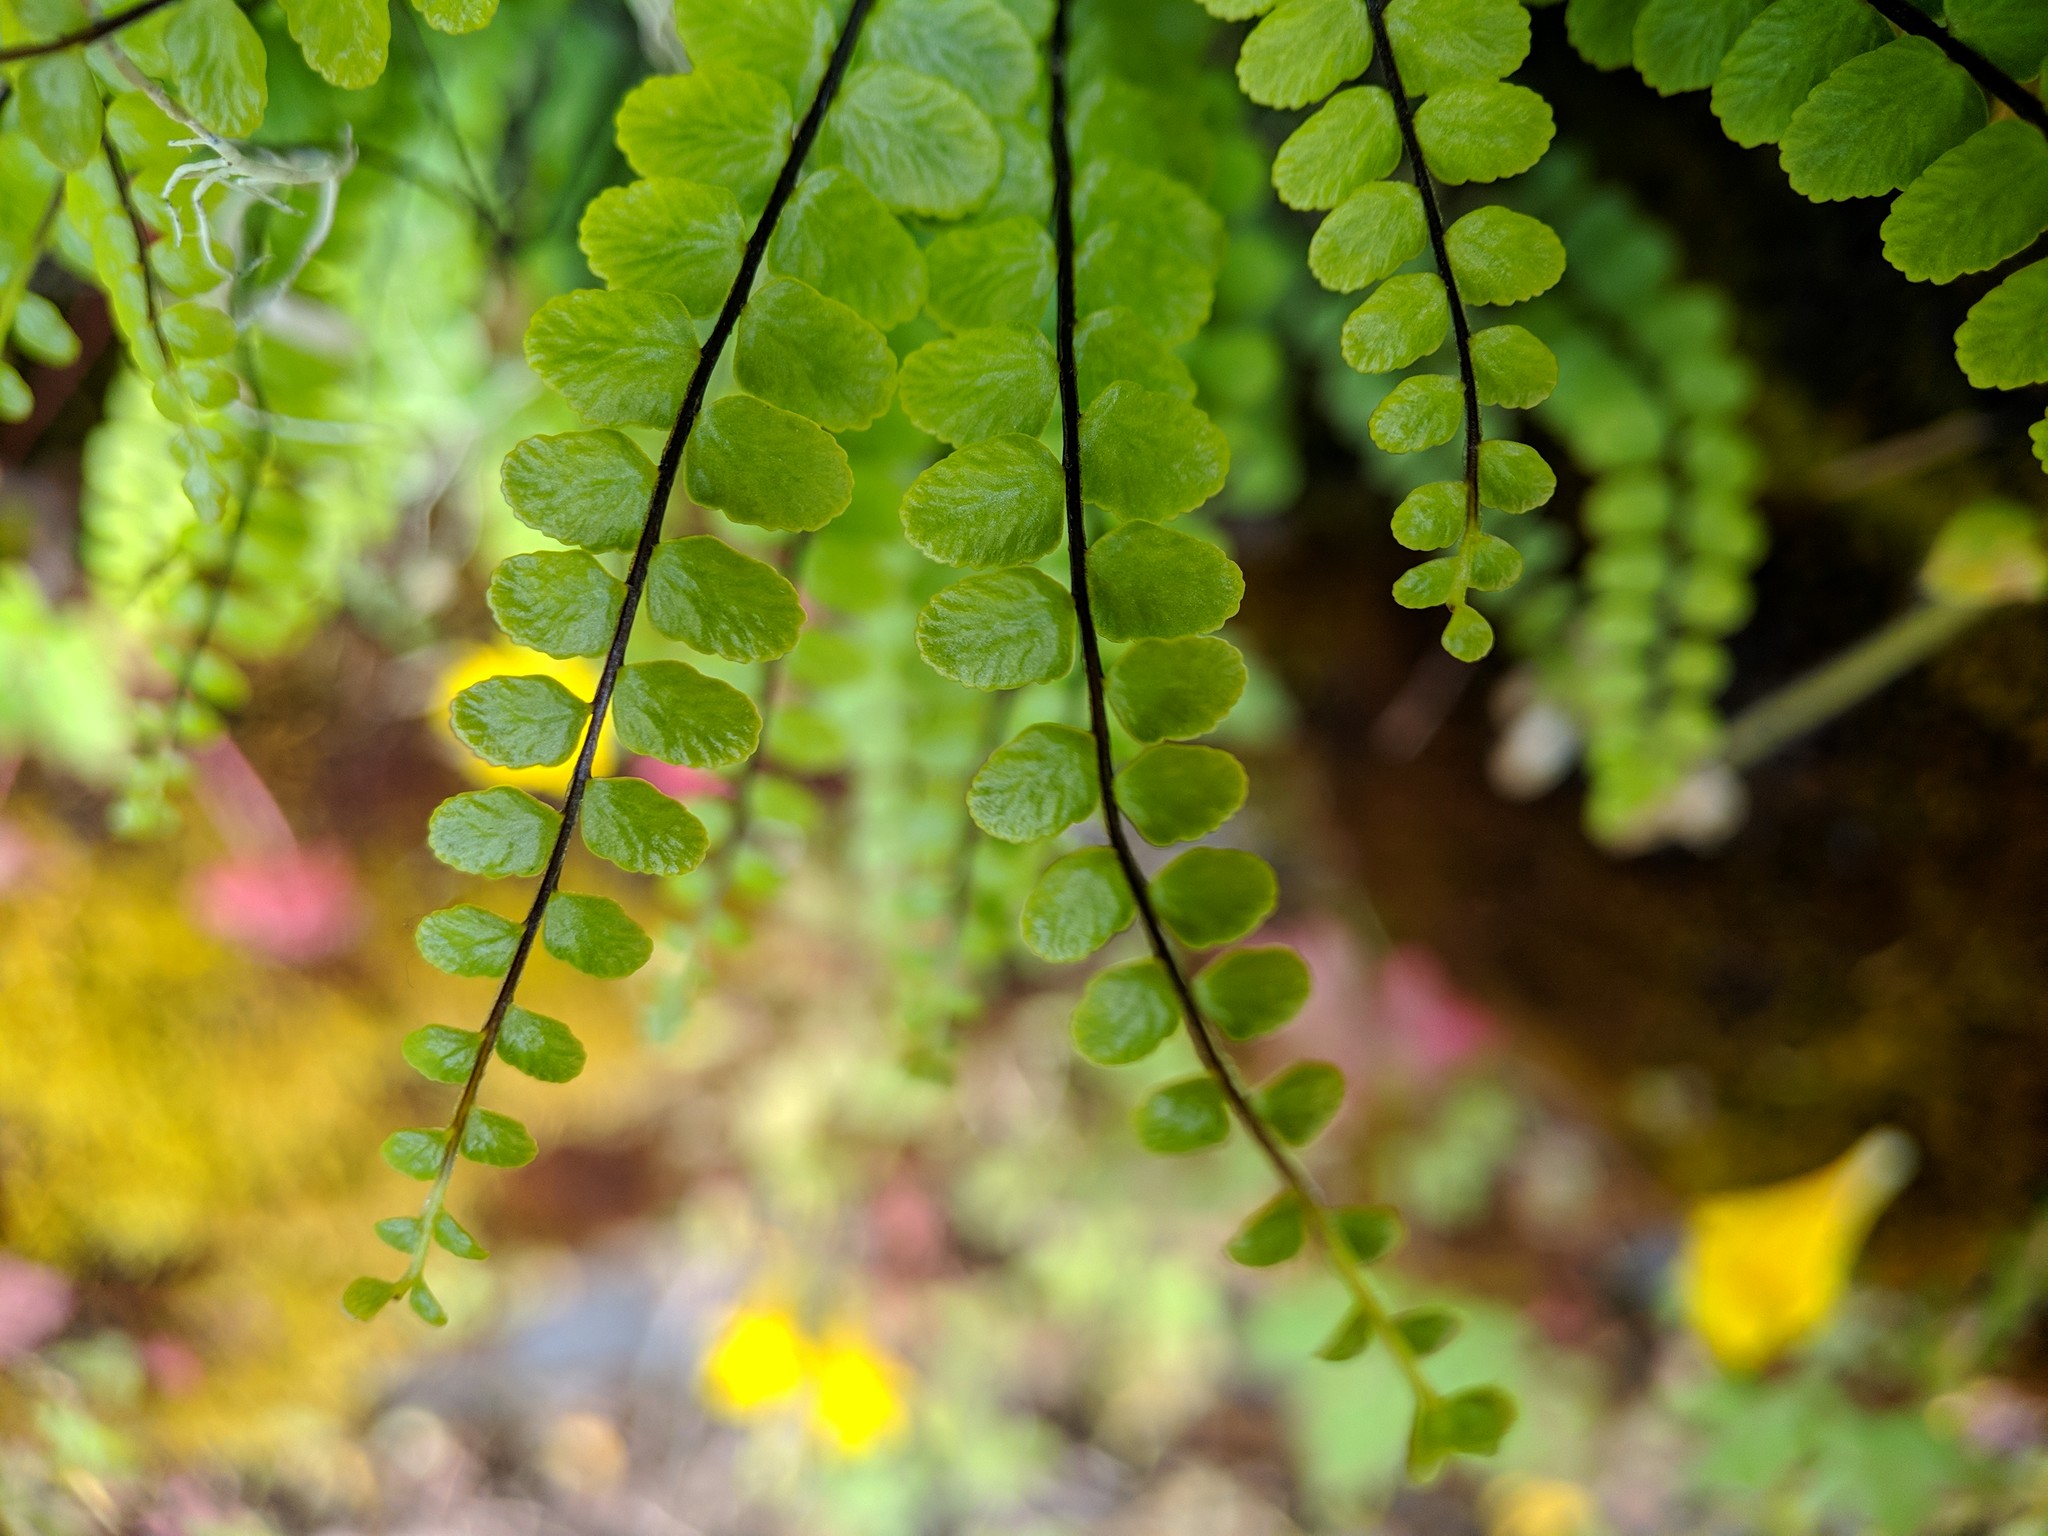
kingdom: Plantae
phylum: Tracheophyta
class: Polypodiopsida
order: Polypodiales
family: Aspleniaceae
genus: Asplenium
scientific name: Asplenium trichomanes
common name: Maidenhair spleenwort
